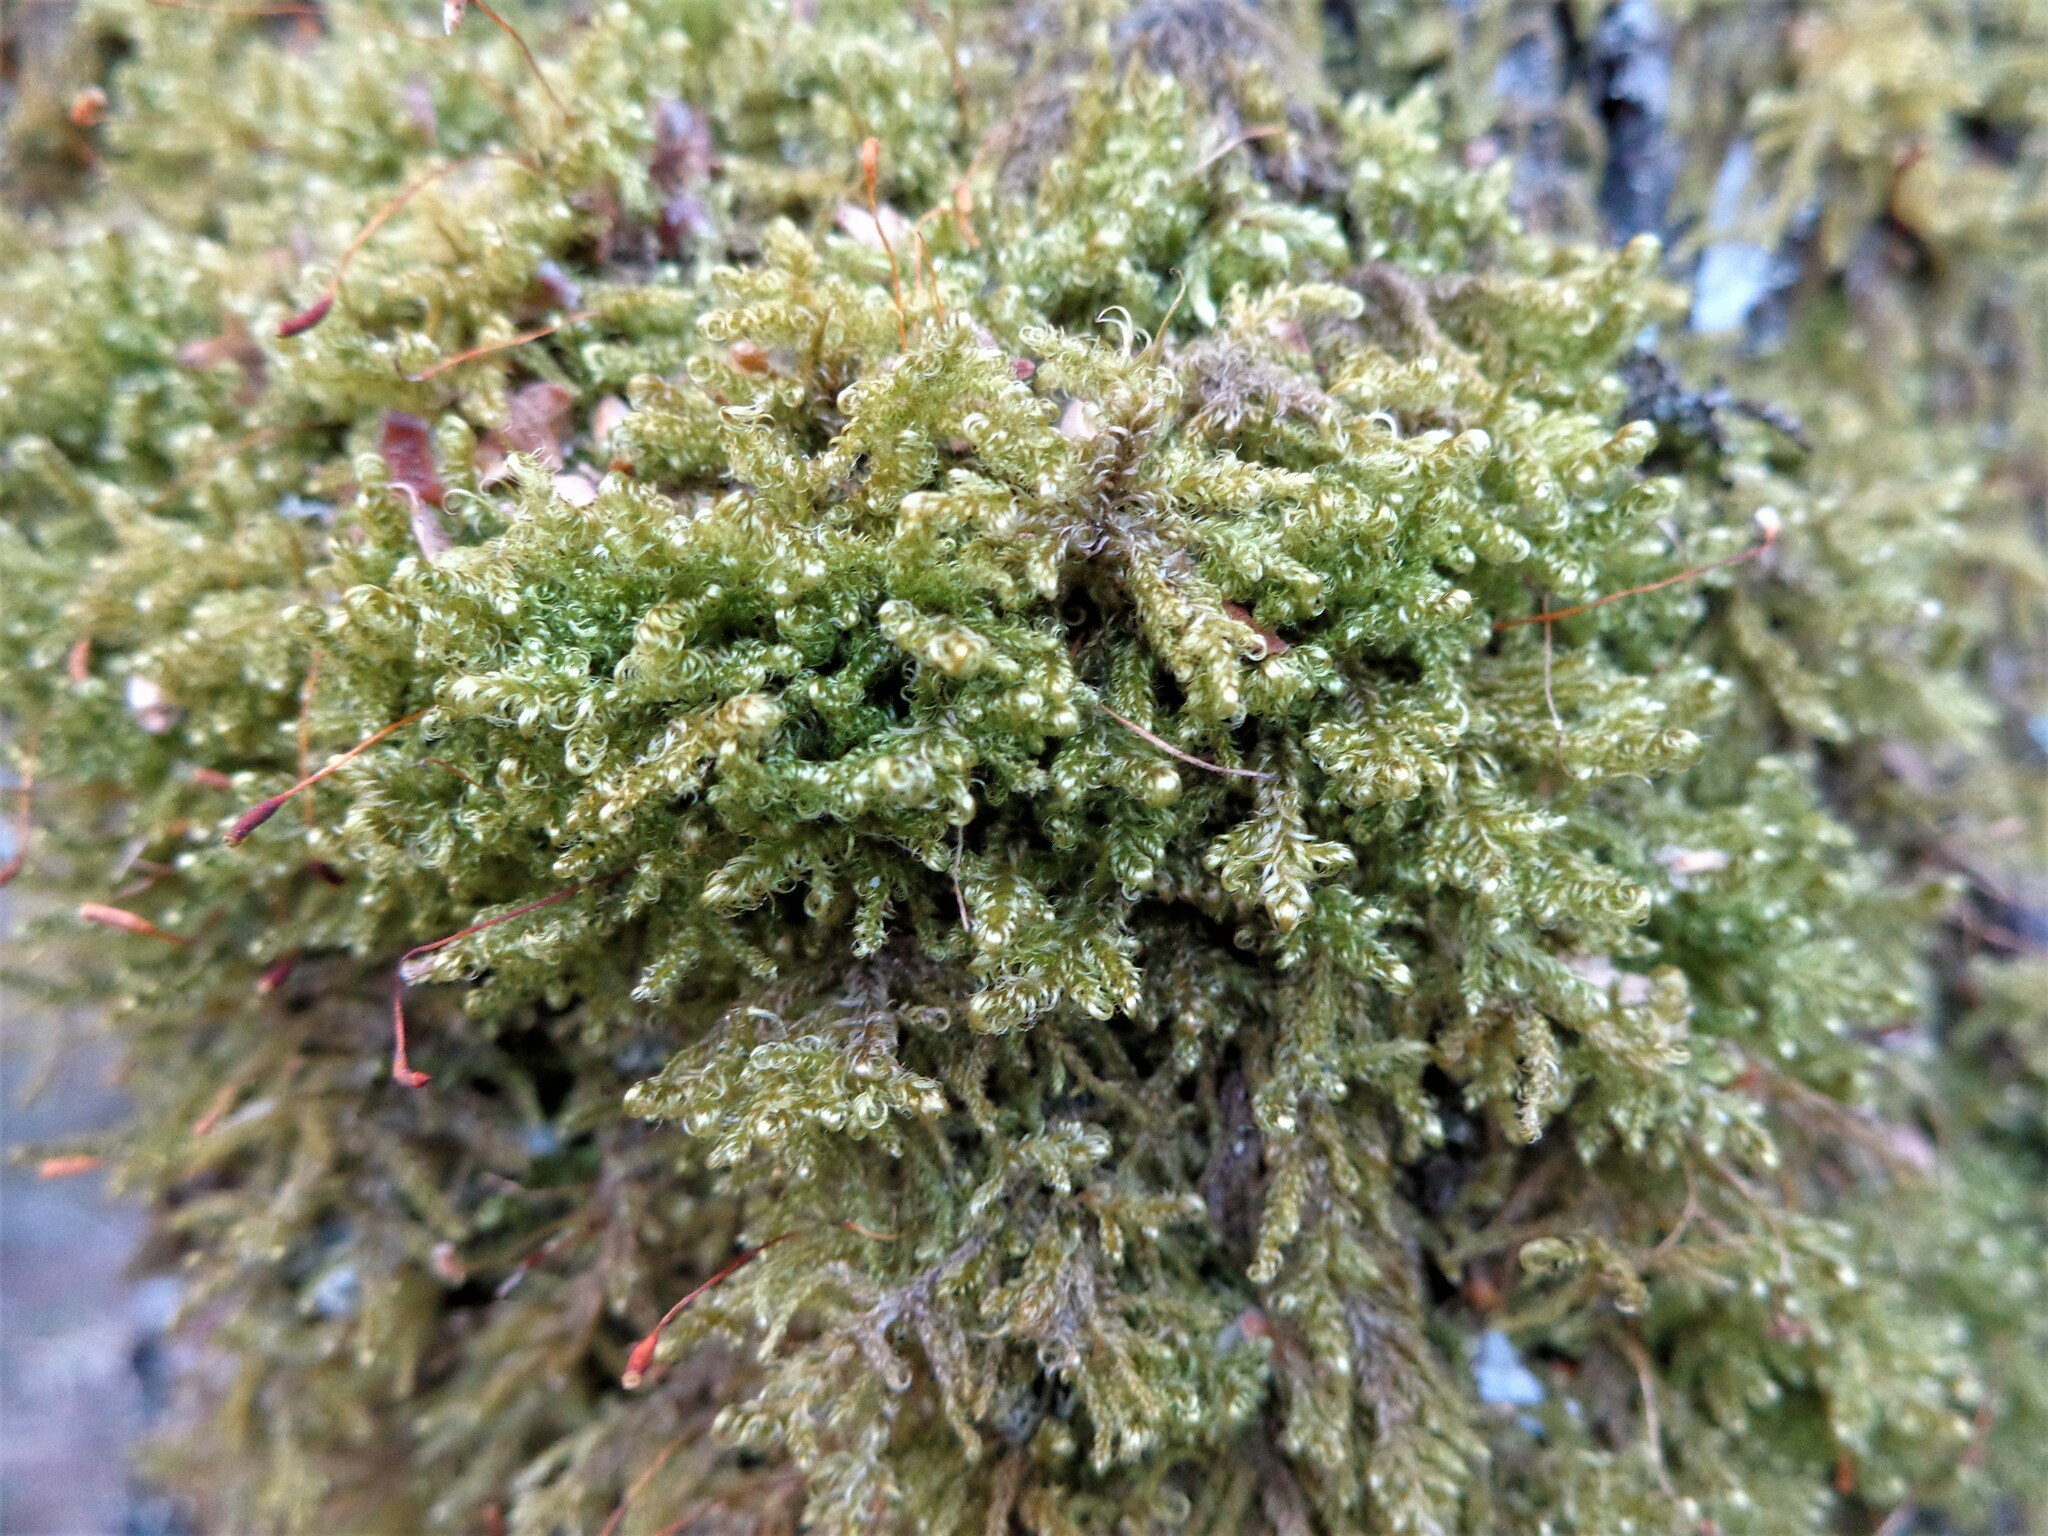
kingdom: Plantae
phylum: Bryophyta
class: Bryopsida
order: Hypnales
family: Scorpidiaceae
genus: Sanionia
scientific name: Sanionia uncinata
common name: Sickle moss
